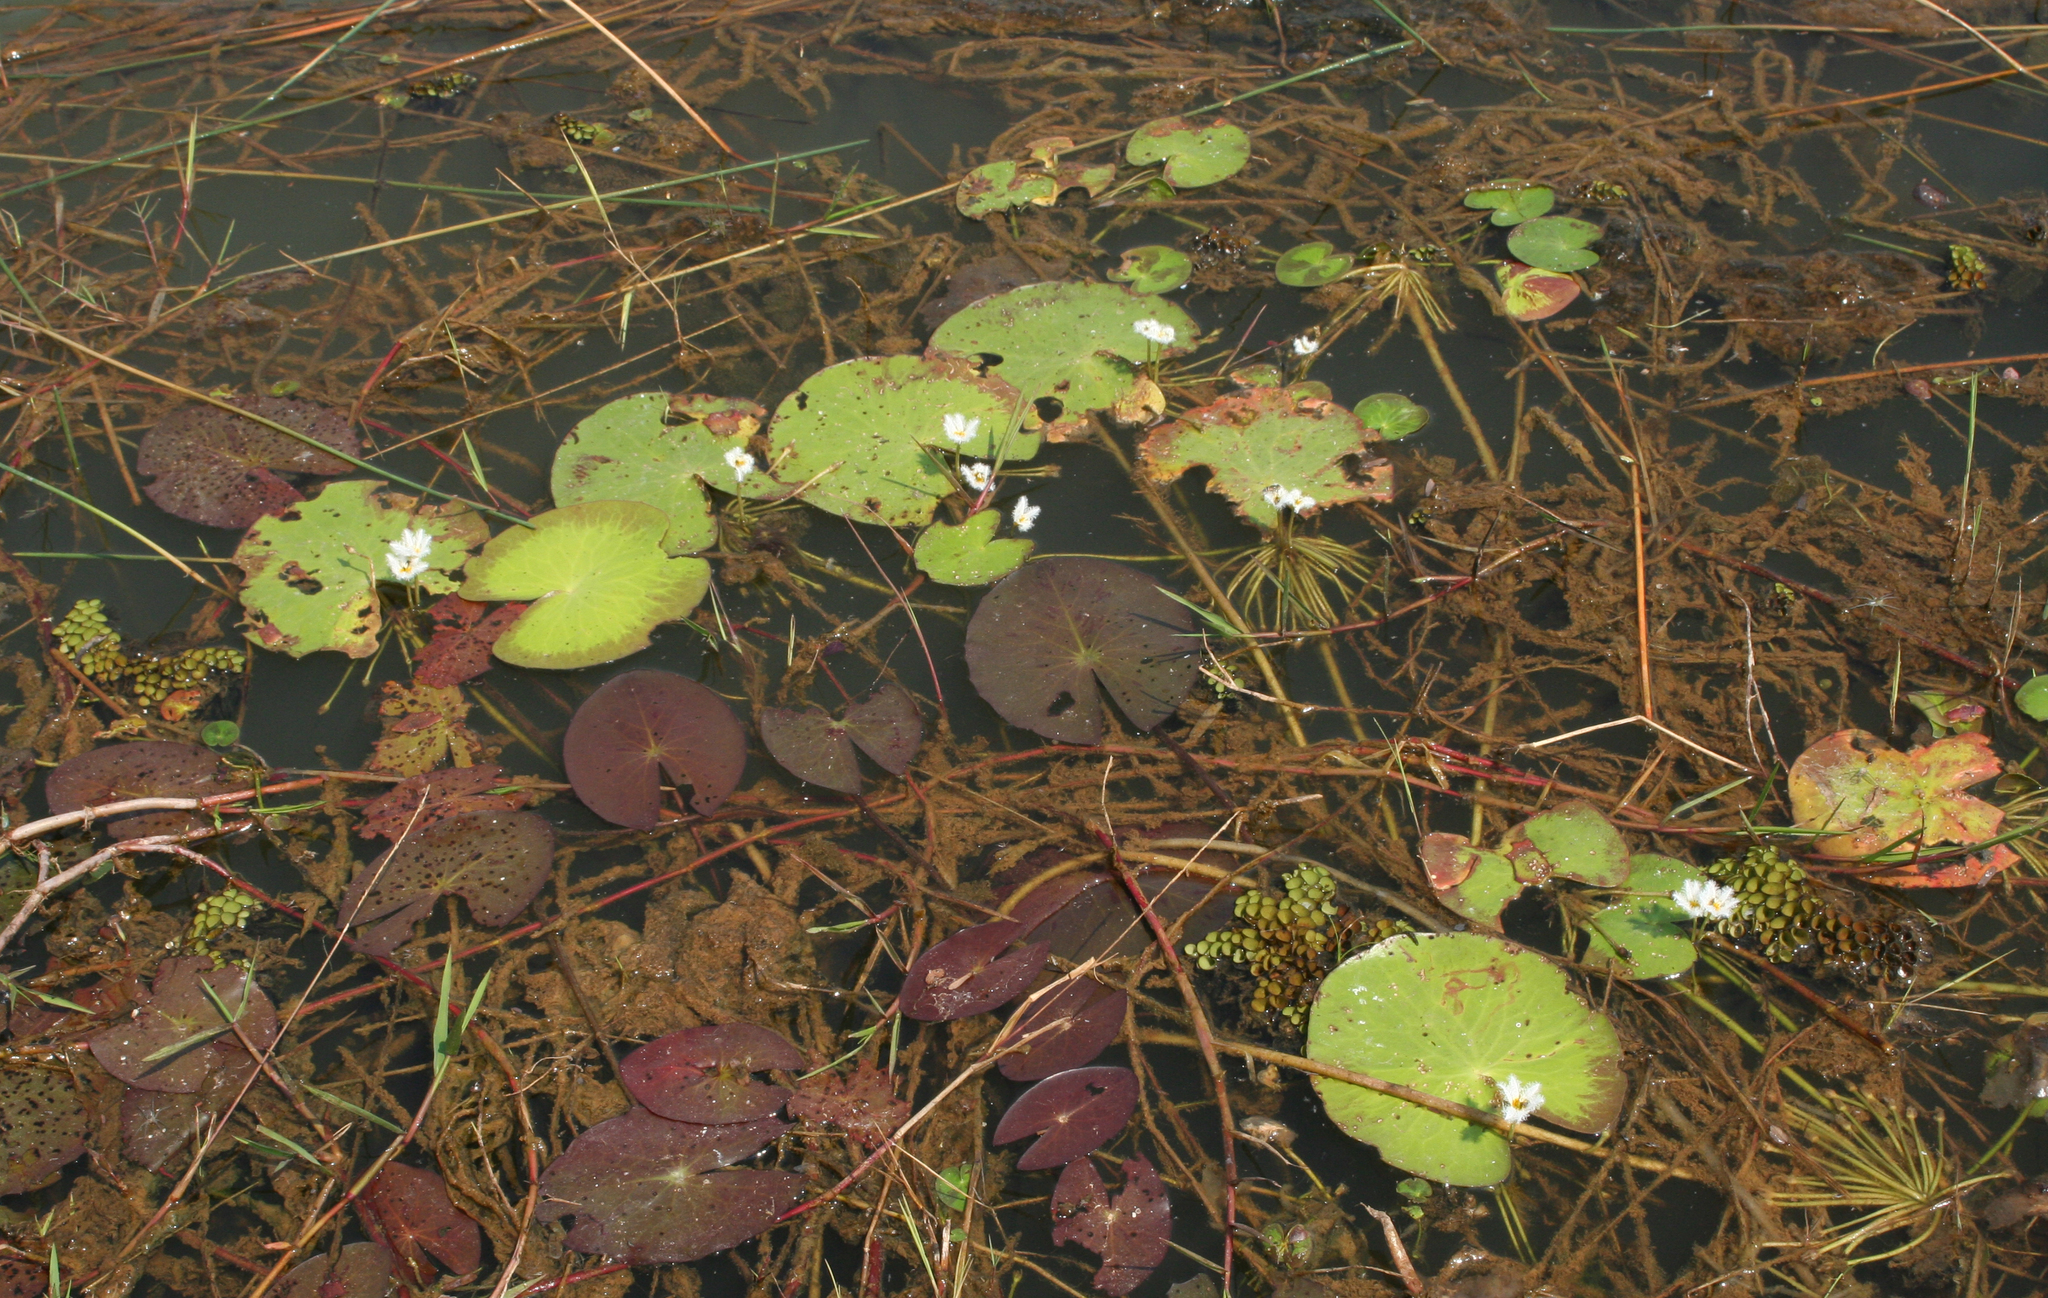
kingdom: Plantae
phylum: Tracheophyta
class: Magnoliopsida
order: Asterales
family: Menyanthaceae
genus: Nymphoides
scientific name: Nymphoides indica
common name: Water-snowflake
